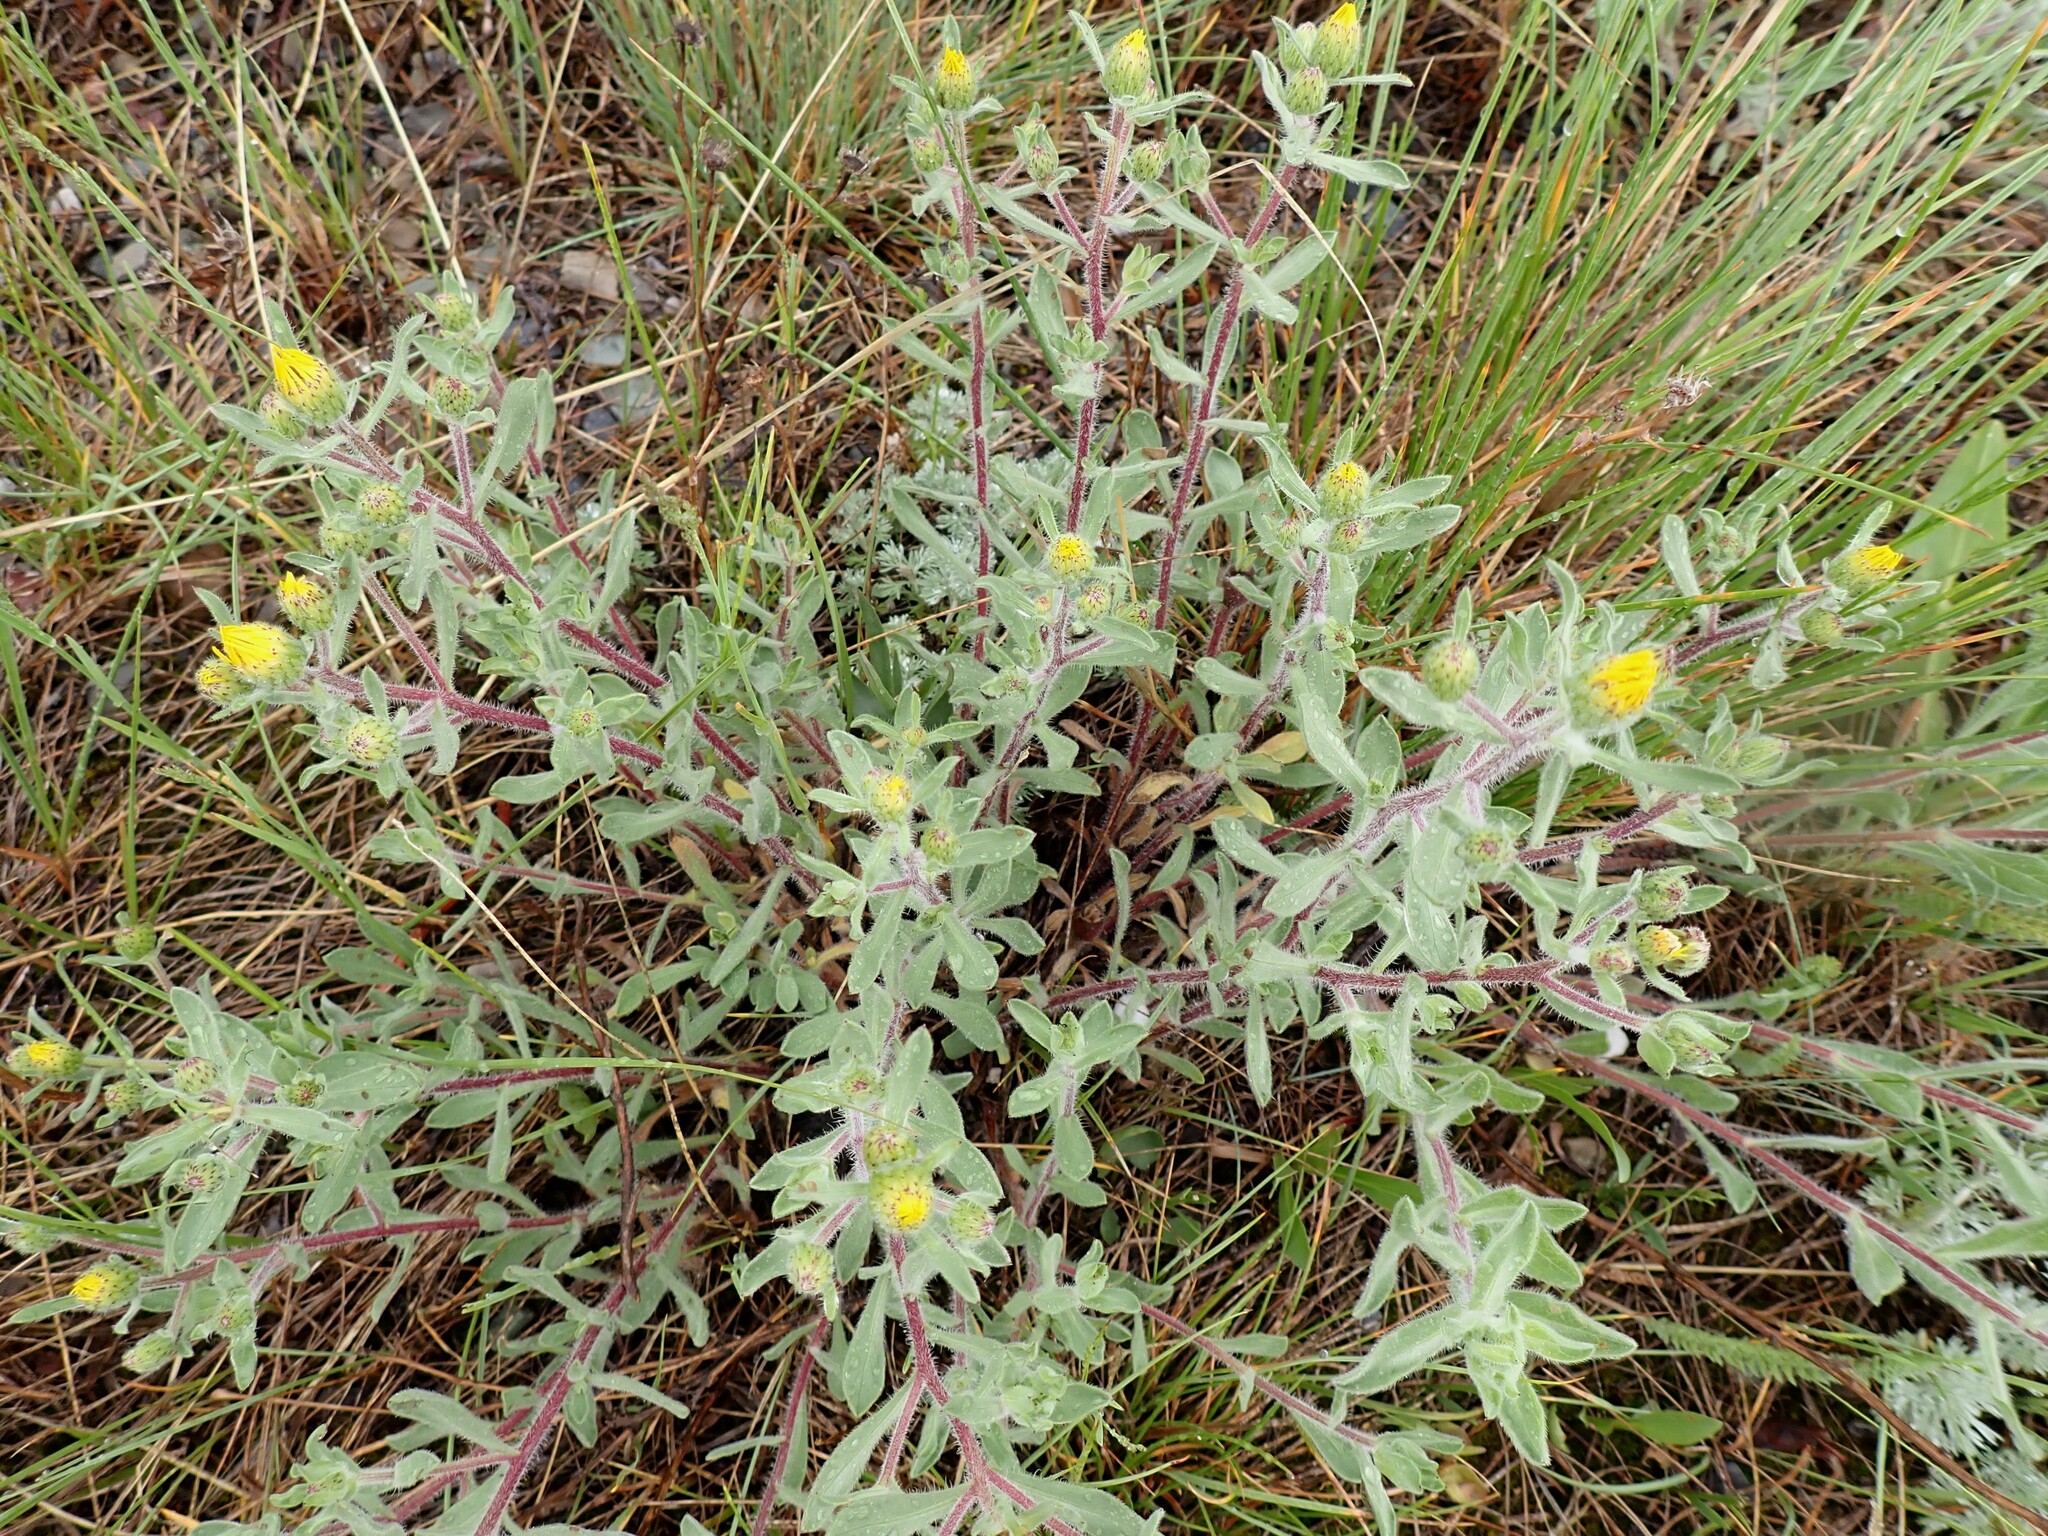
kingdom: Plantae
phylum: Tracheophyta
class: Magnoliopsida
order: Asterales
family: Asteraceae
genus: Heterotheca
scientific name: Heterotheca villosa
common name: Hairy false goldenaster
